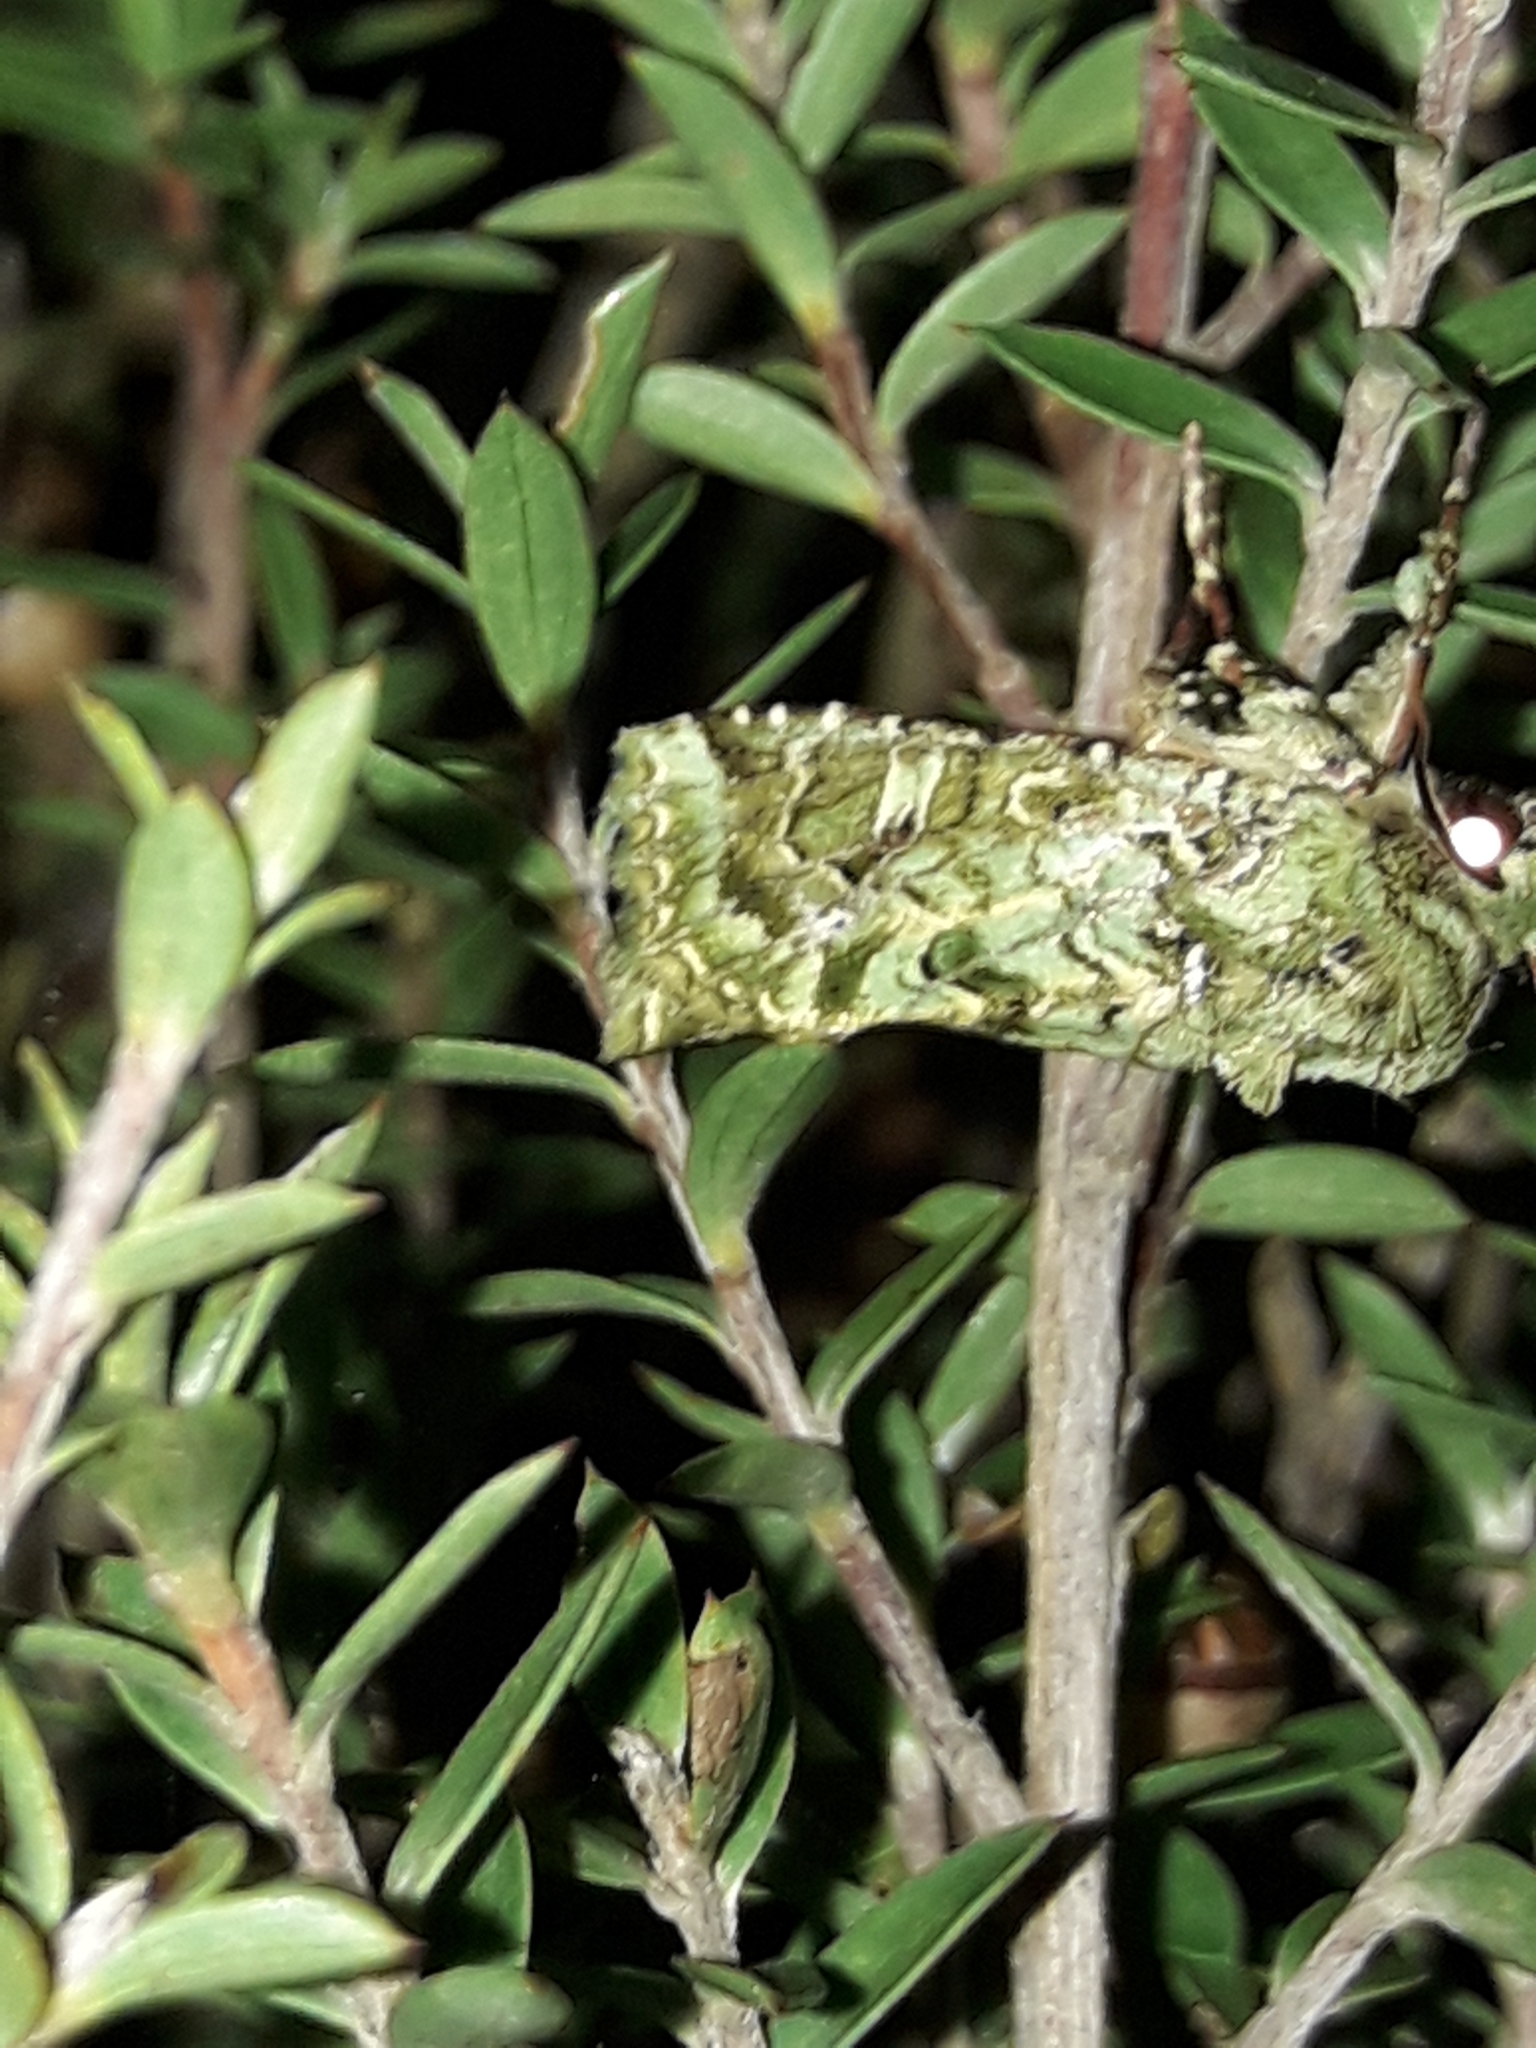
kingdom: Animalia
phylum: Arthropoda
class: Insecta
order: Lepidoptera
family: Noctuidae
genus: Feredayia
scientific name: Feredayia grammosa
